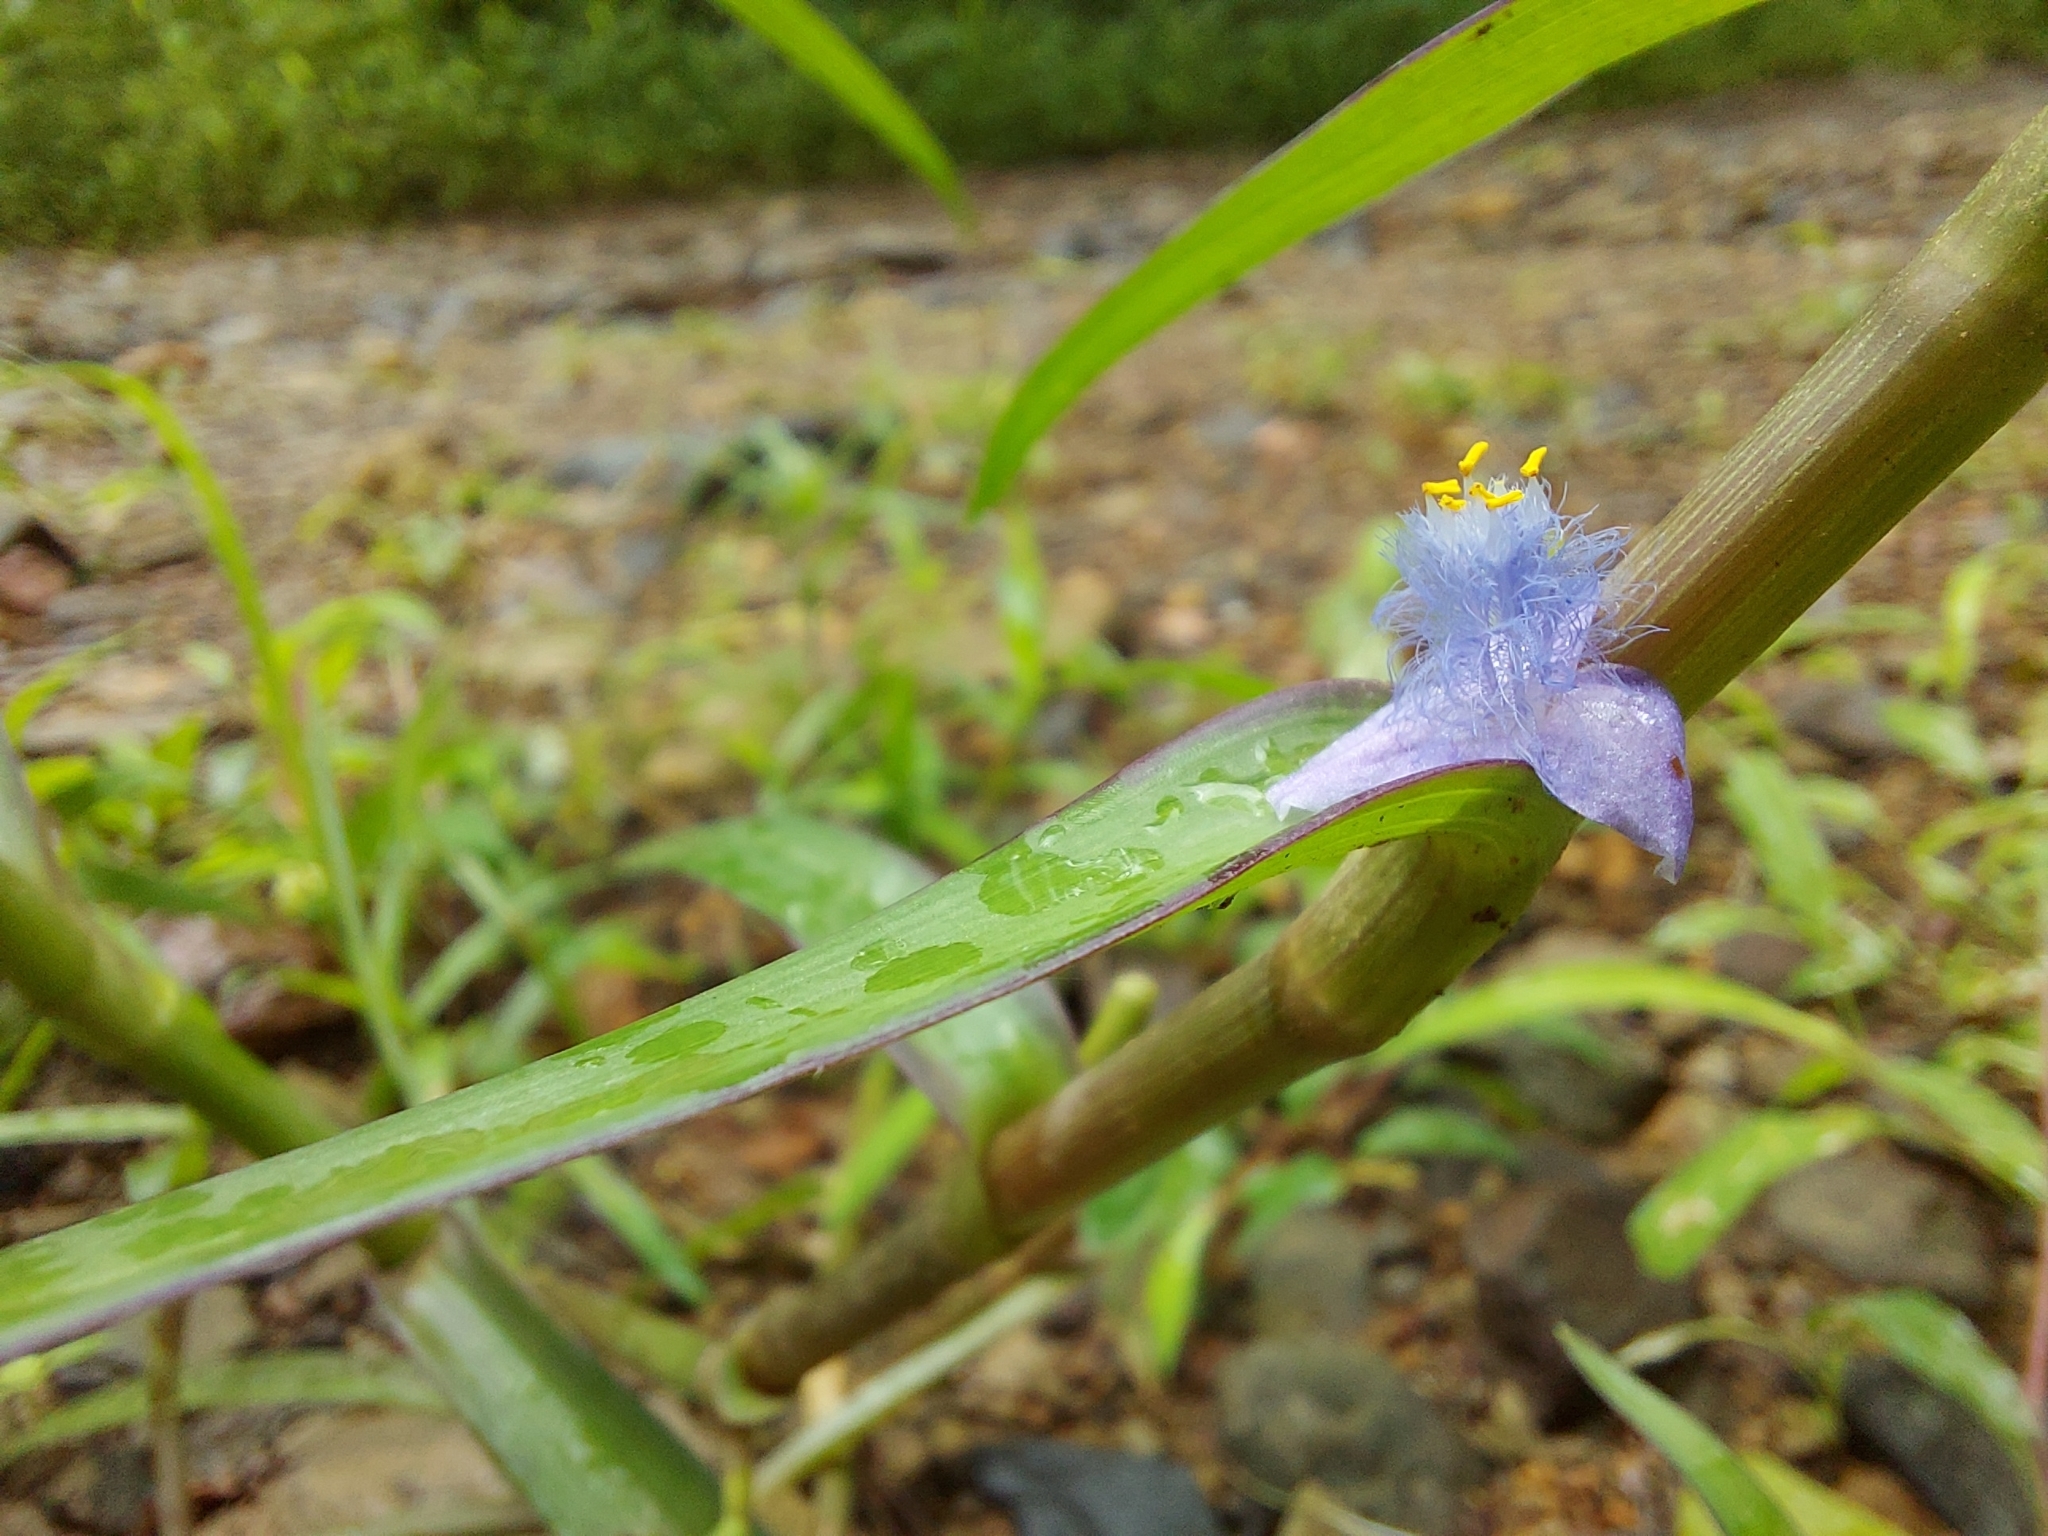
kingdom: Plantae
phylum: Tracheophyta
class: Liliopsida
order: Commelinales
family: Commelinaceae
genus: Cyanotis
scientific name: Cyanotis axillaris
